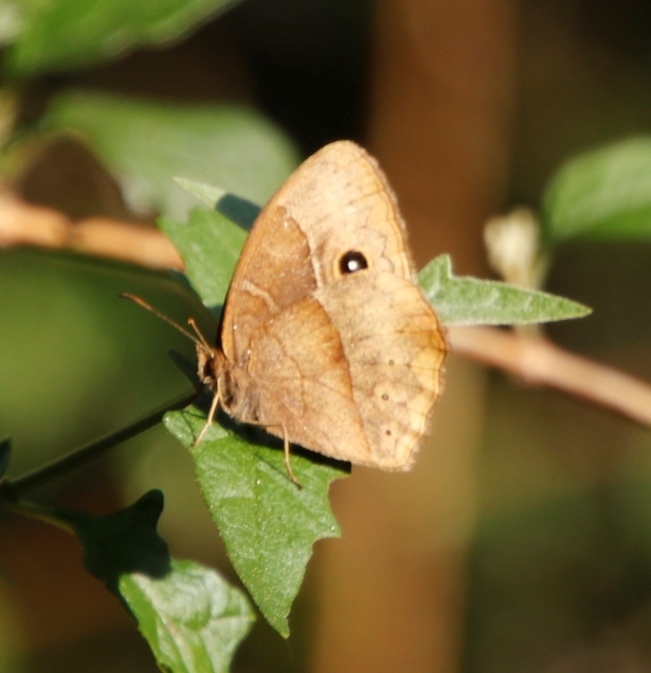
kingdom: Animalia
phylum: Arthropoda
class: Insecta
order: Lepidoptera
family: Nymphalidae
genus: Mycalesis
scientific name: Mycalesis rhacotis
